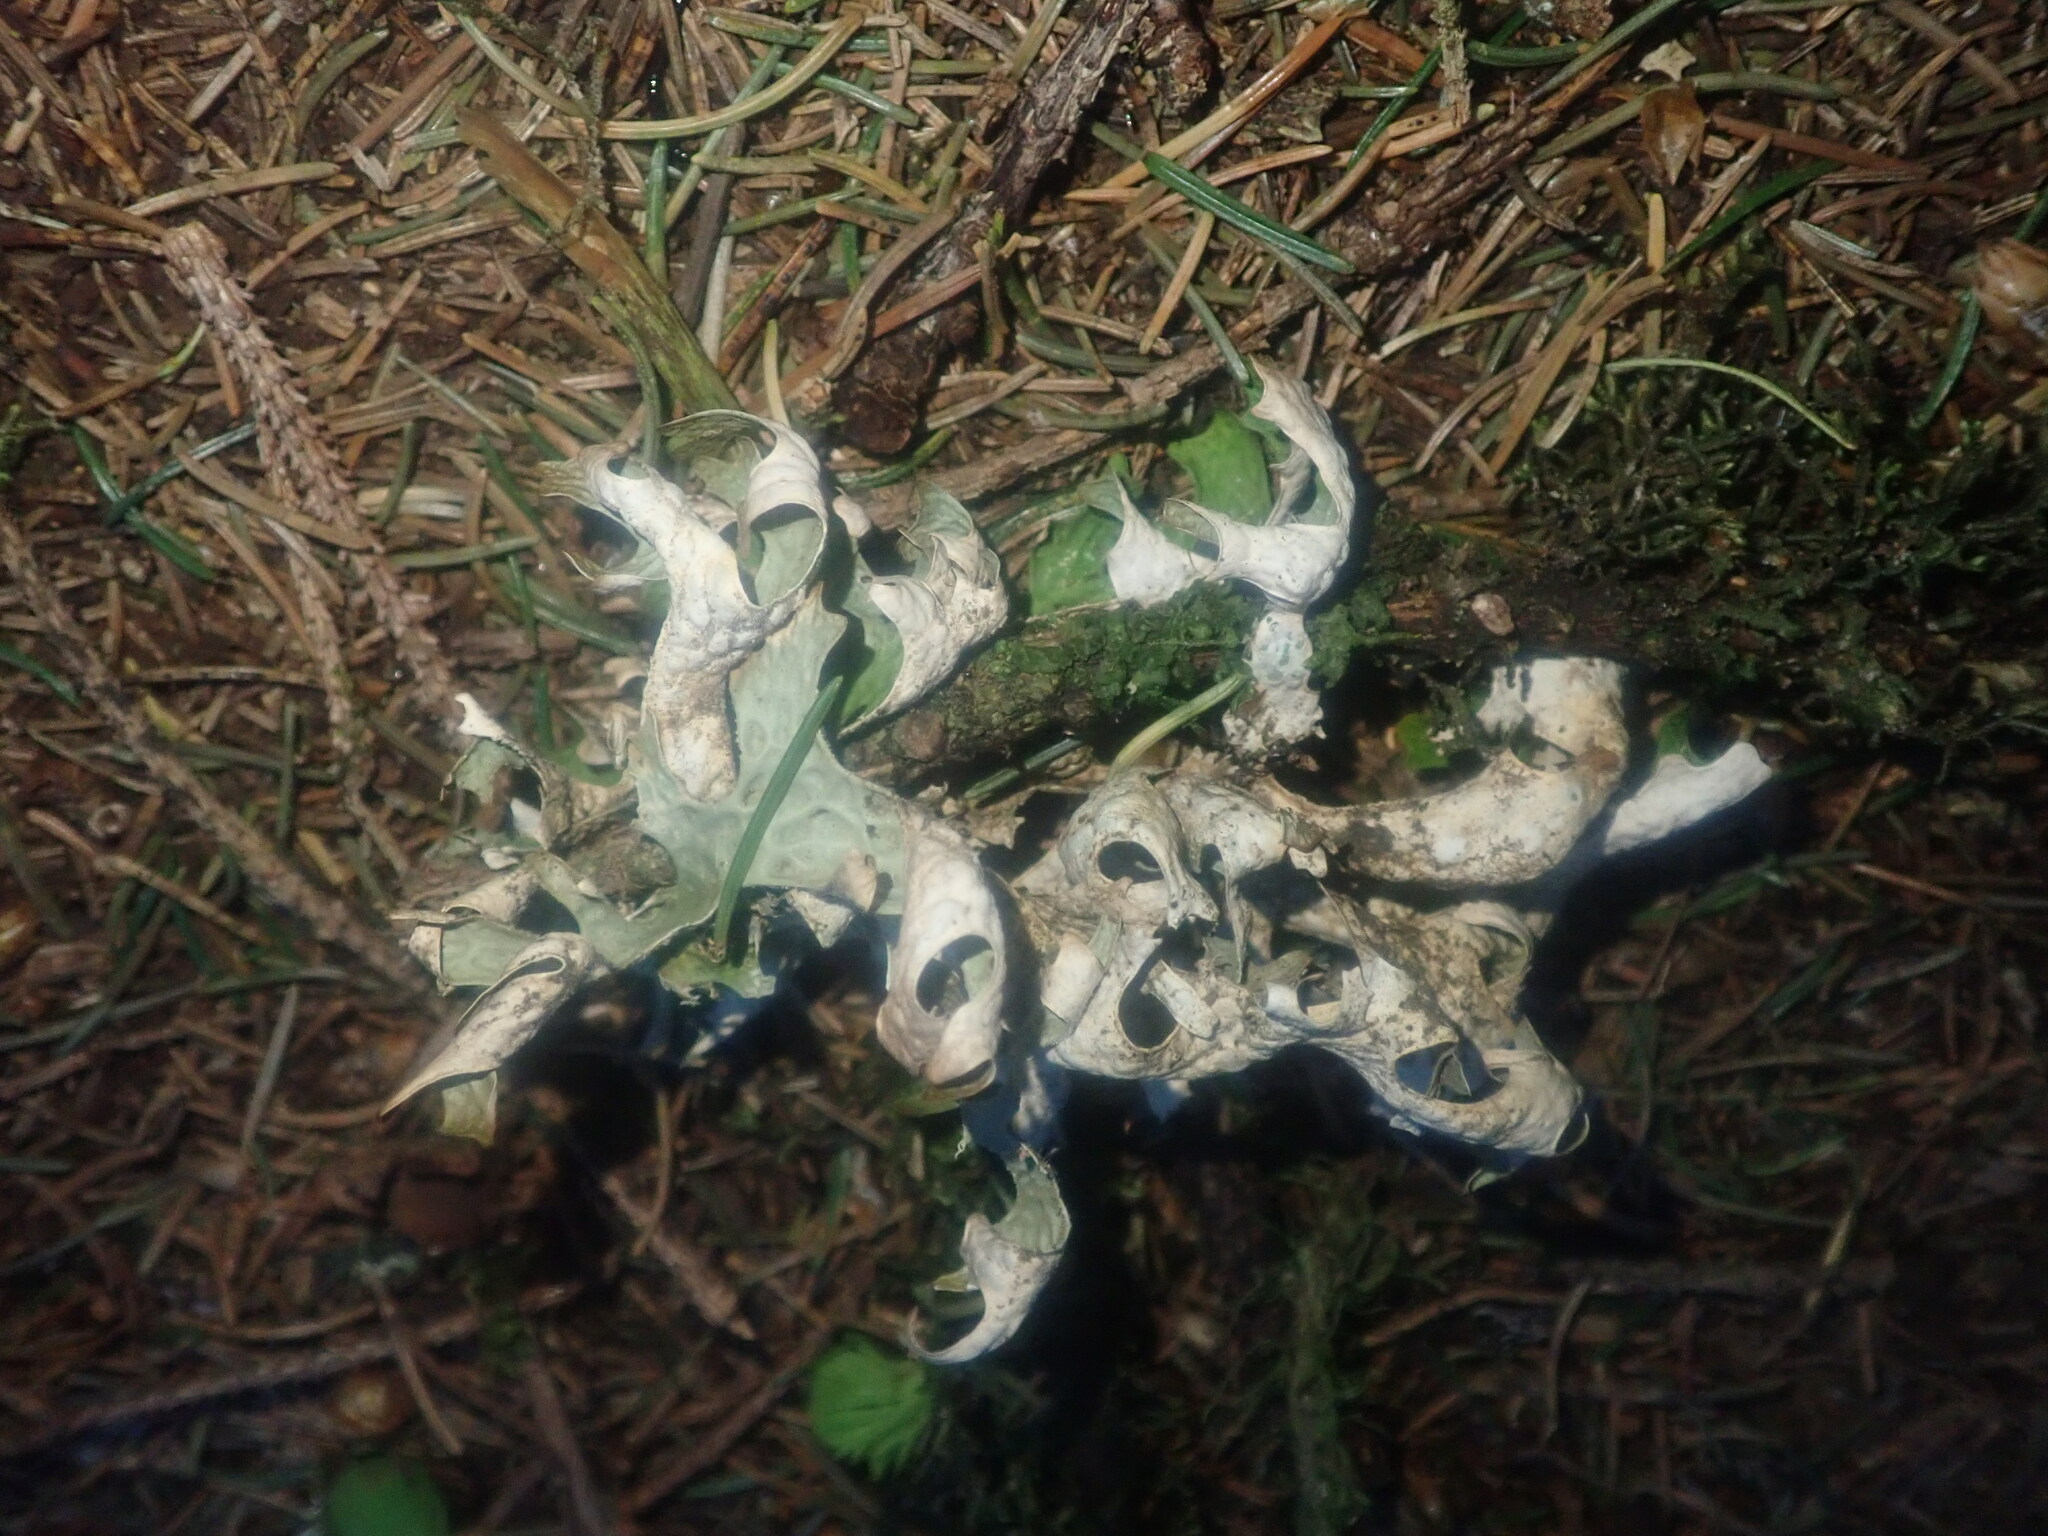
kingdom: Fungi
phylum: Ascomycota
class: Lecanoromycetes
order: Peltigerales
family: Lobariaceae
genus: Lobaria
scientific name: Lobaria pulmonaria
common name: Lungwort
